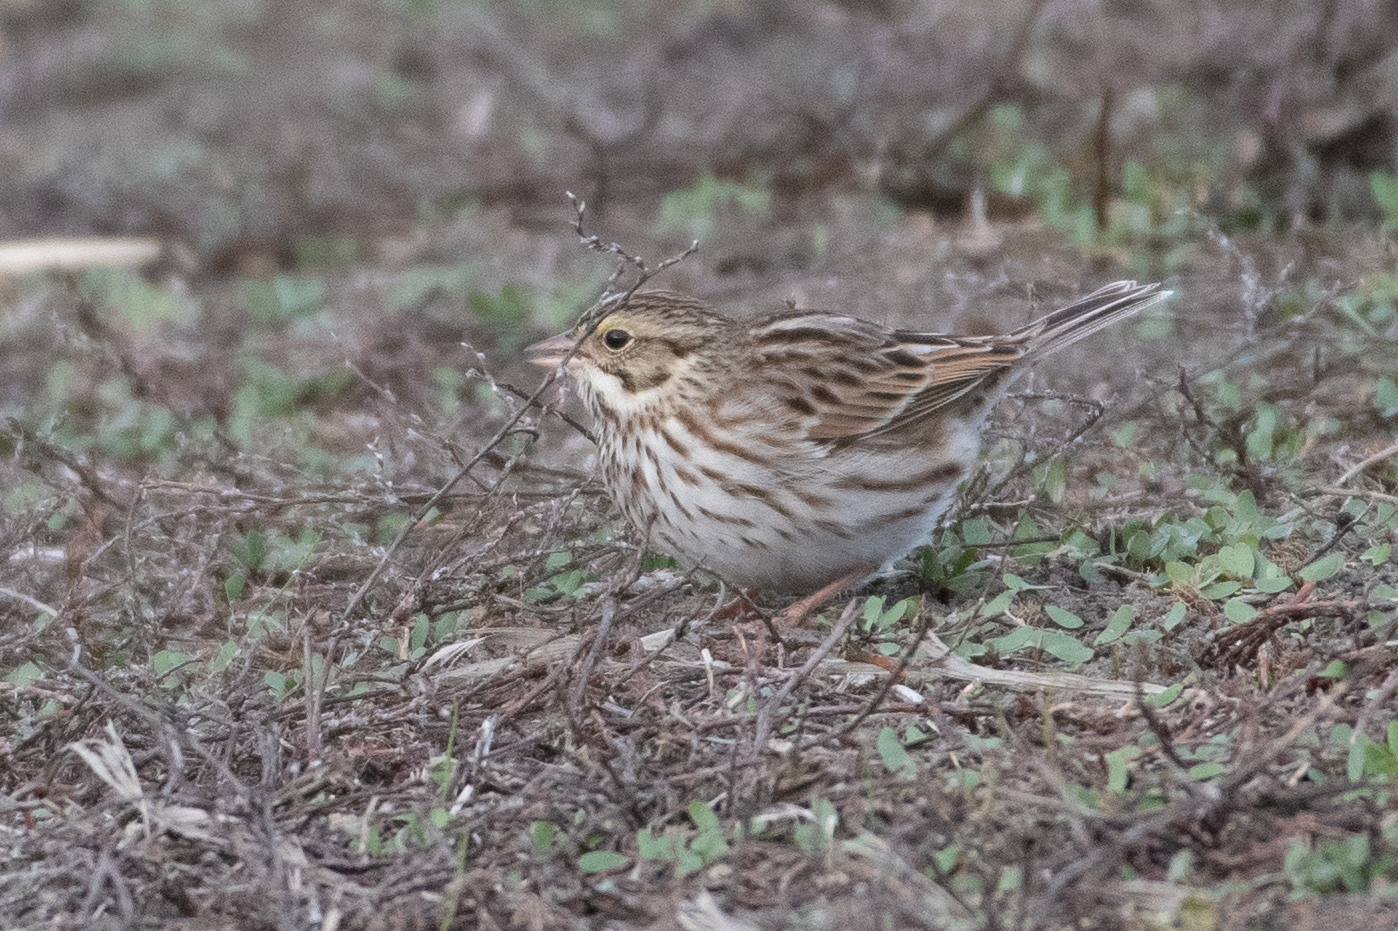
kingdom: Animalia
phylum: Chordata
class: Aves
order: Passeriformes
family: Passerellidae
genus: Passerculus
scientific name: Passerculus sandwichensis
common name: Savannah sparrow
